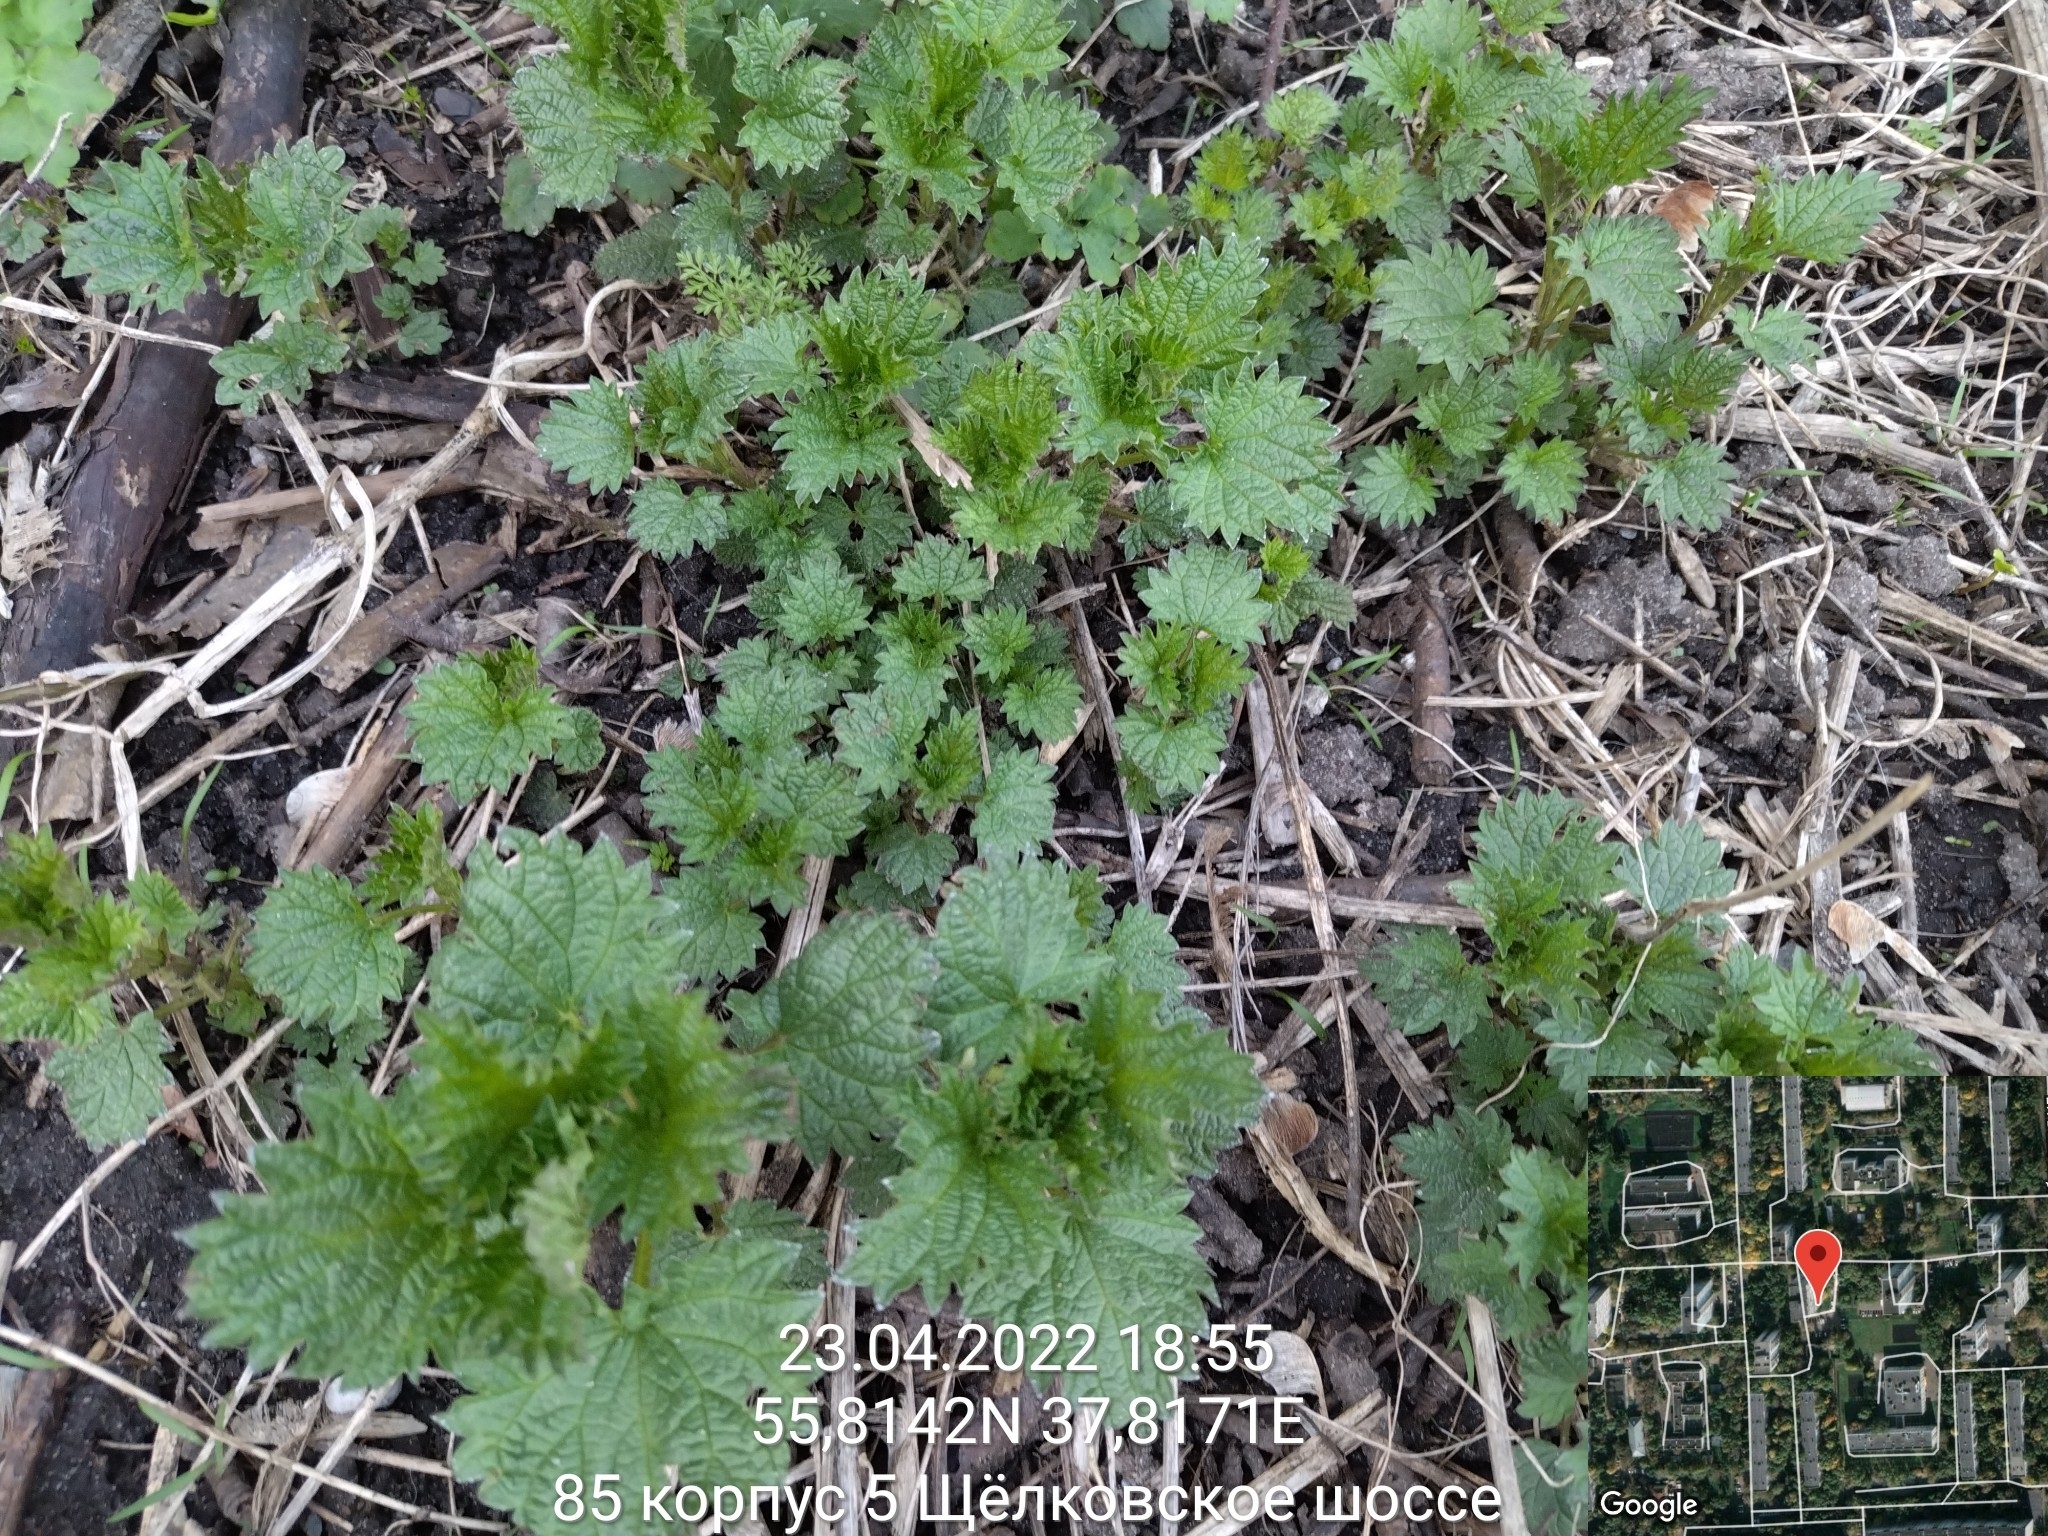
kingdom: Plantae
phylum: Tracheophyta
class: Magnoliopsida
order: Rosales
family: Urticaceae
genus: Urtica
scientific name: Urtica dioica
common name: Common nettle
